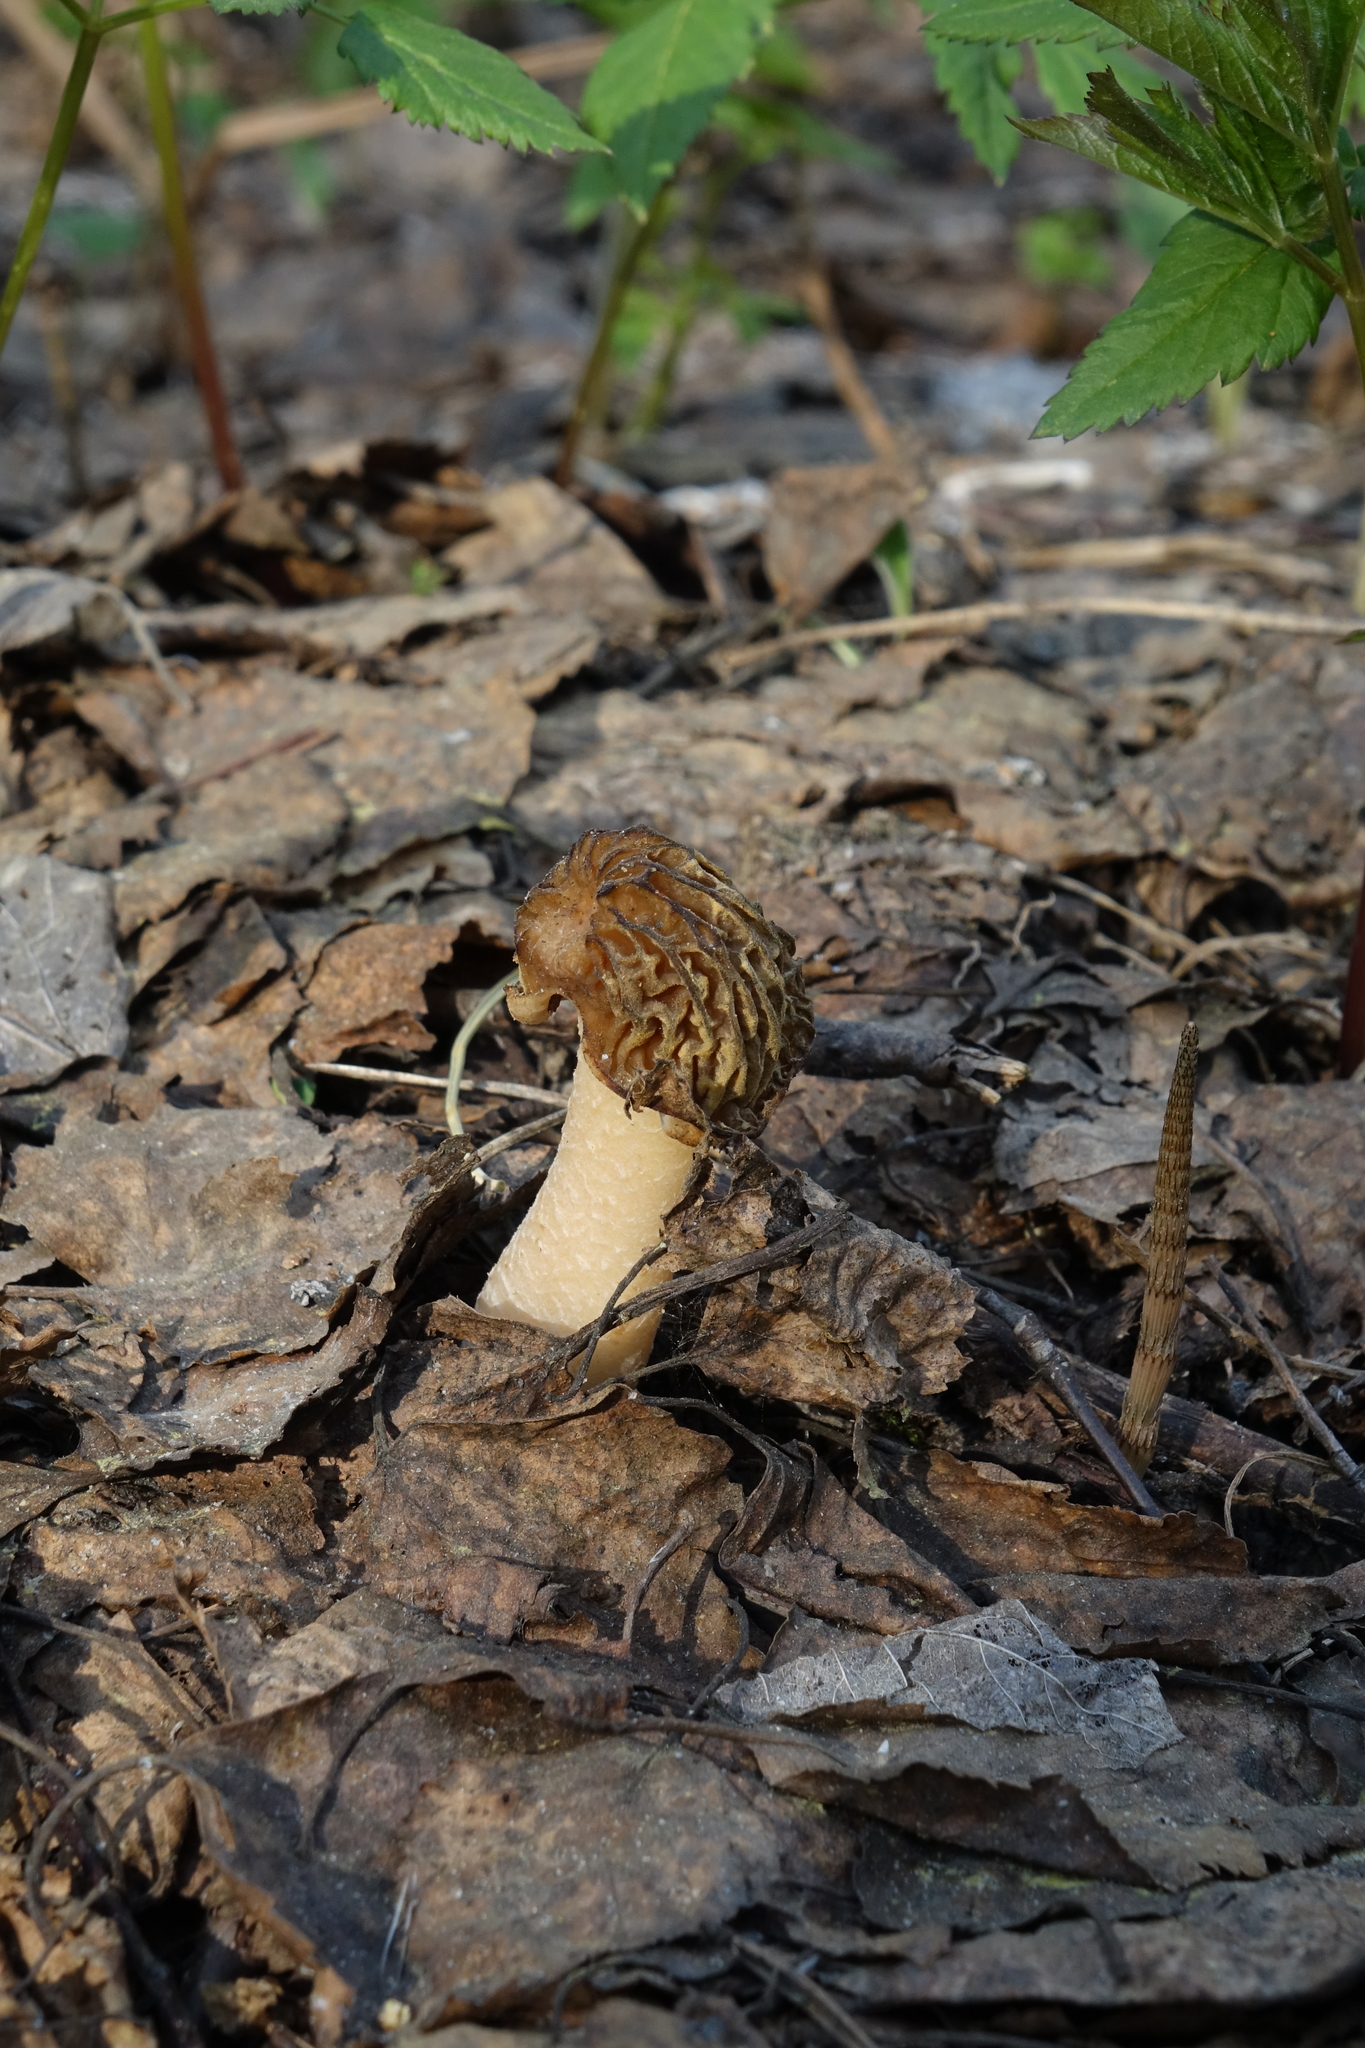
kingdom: Fungi
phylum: Ascomycota
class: Pezizomycetes
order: Pezizales
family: Morchellaceae
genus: Verpa
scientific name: Verpa bohemica
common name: Wrinkled thimble morel
